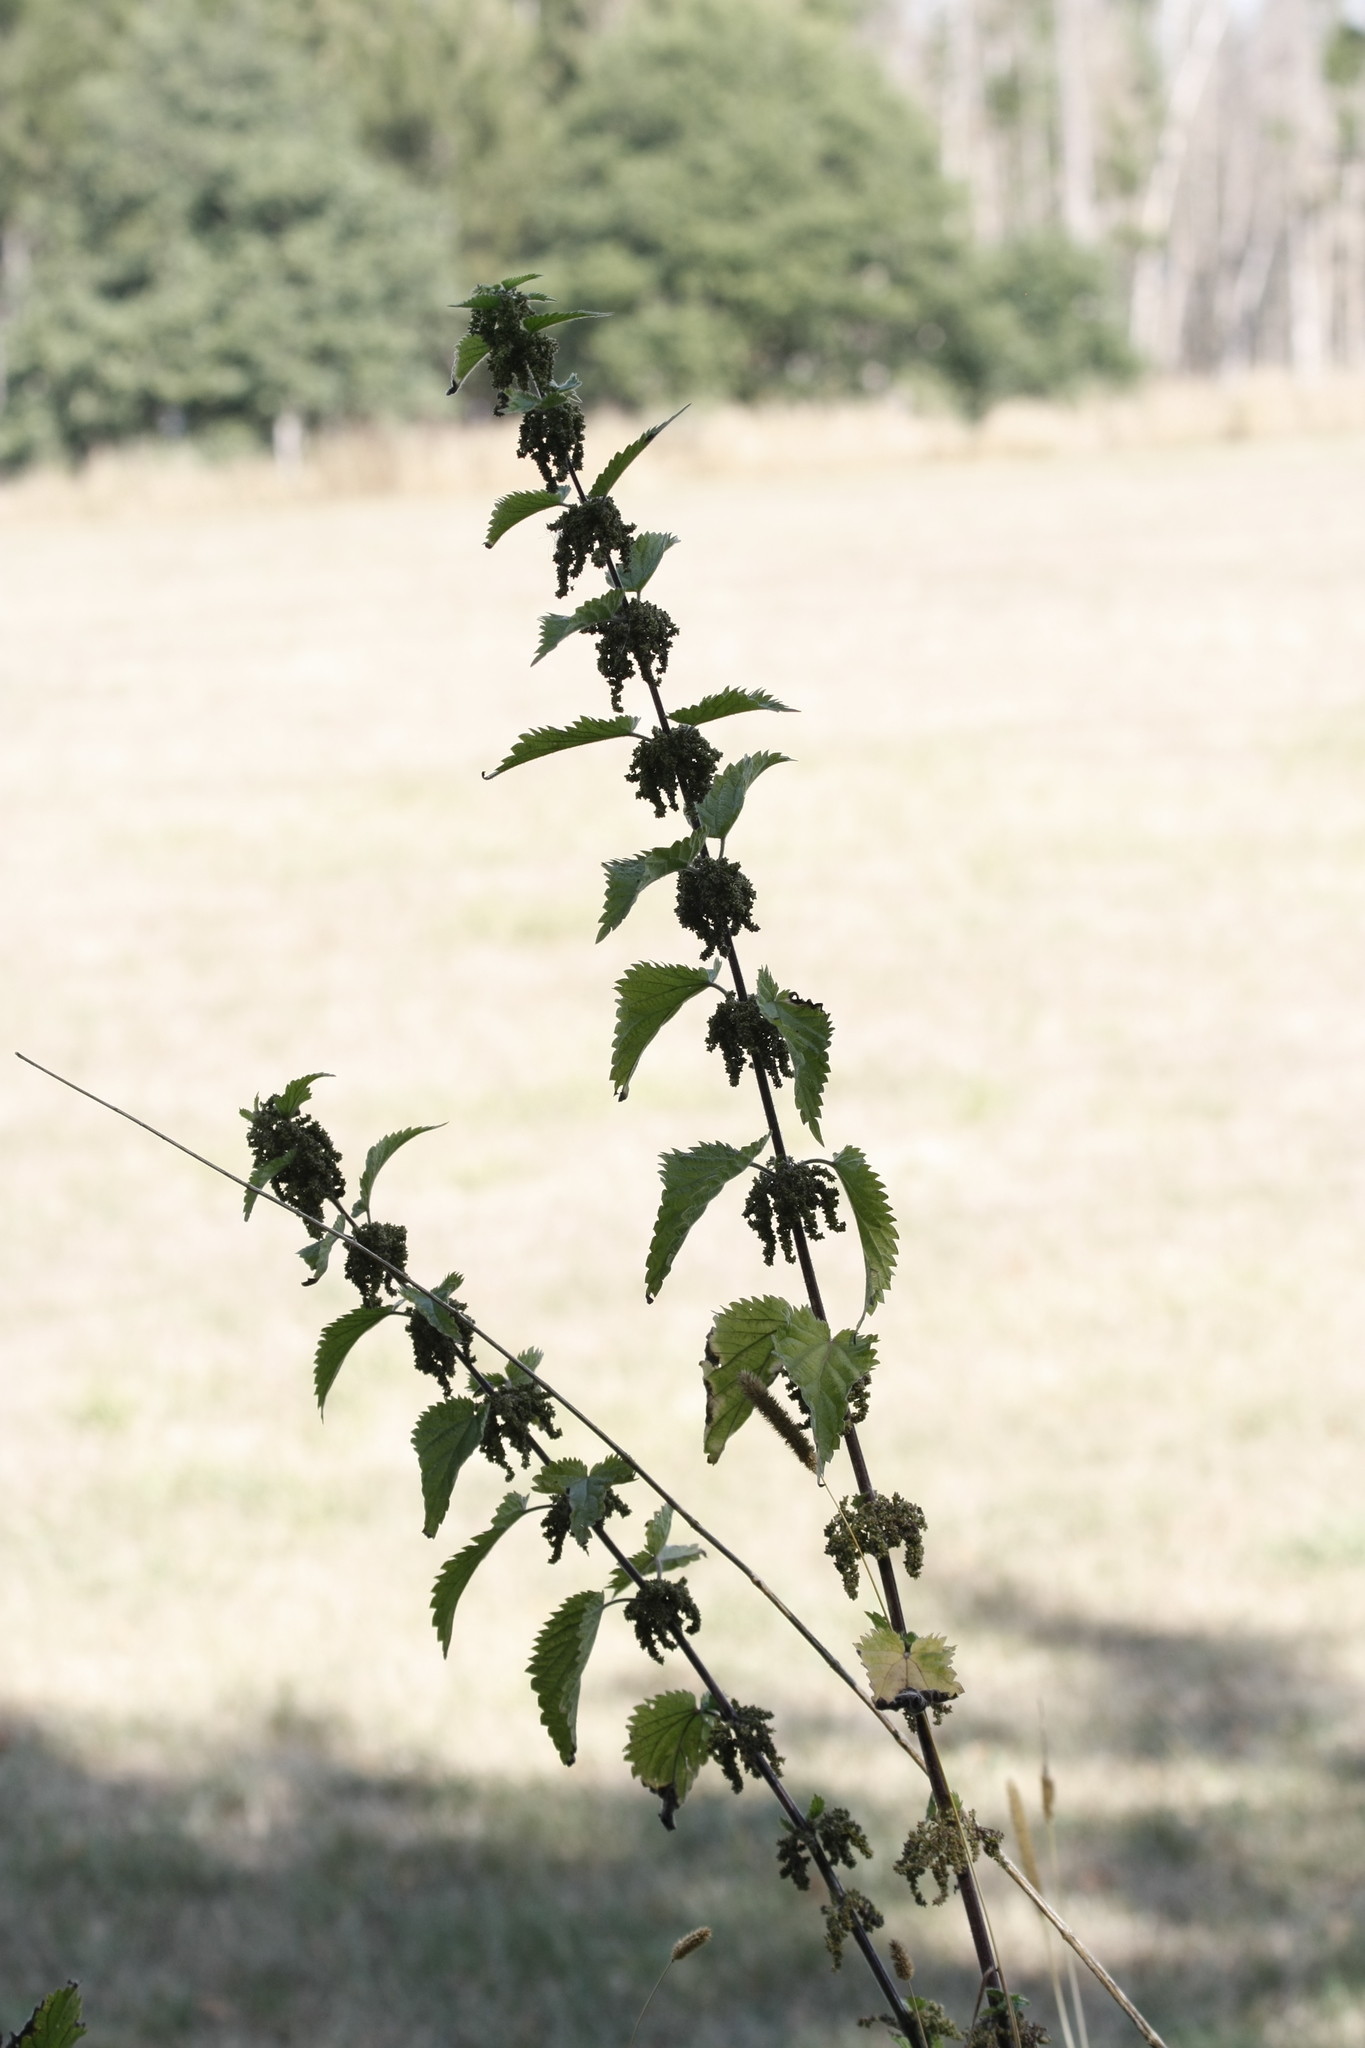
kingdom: Plantae
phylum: Tracheophyta
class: Magnoliopsida
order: Rosales
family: Urticaceae
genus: Urtica
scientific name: Urtica dioica
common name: Common nettle
